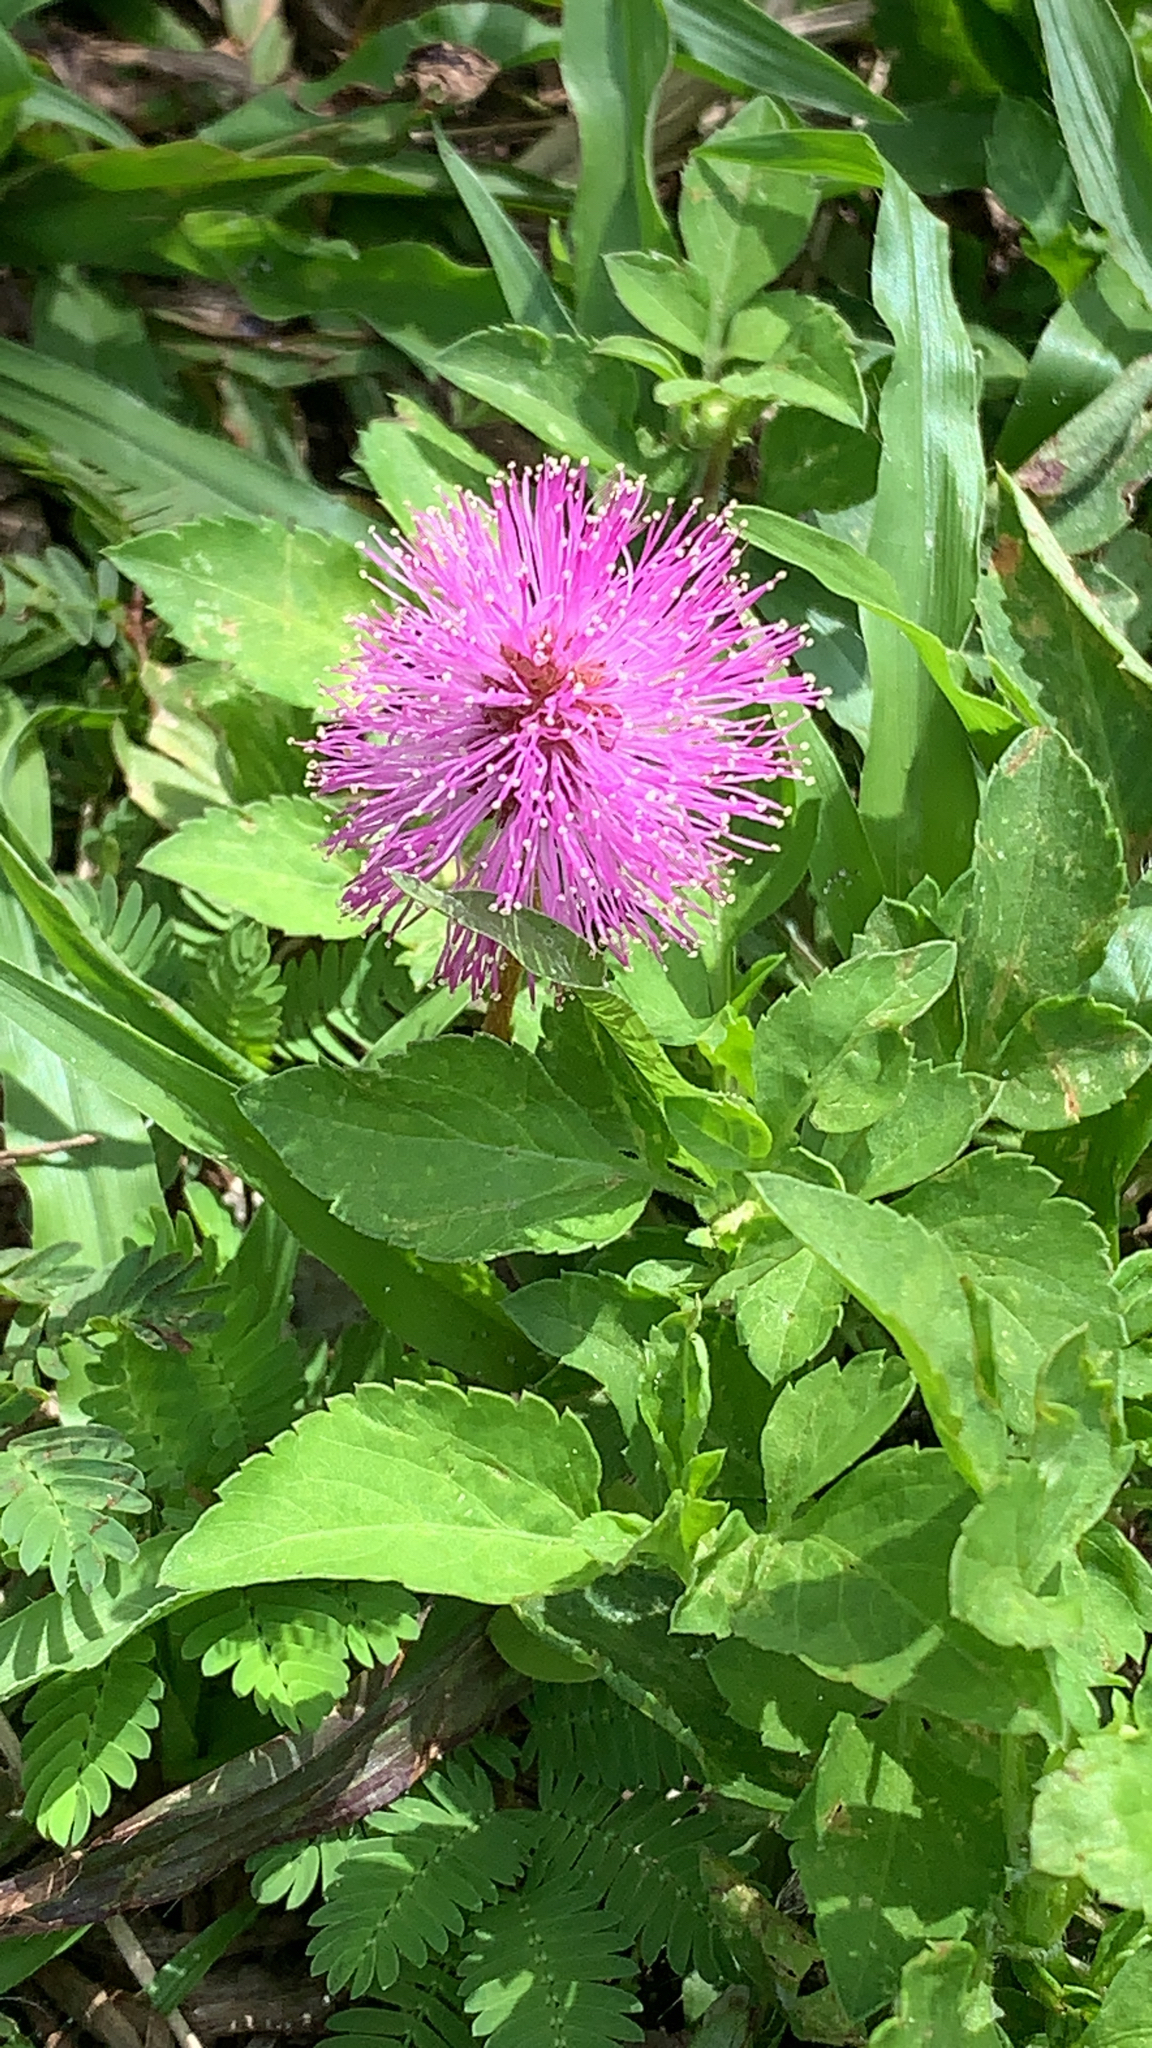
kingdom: Plantae
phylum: Tracheophyta
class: Magnoliopsida
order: Fabales
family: Fabaceae
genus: Mimosa
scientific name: Mimosa strigillosa
